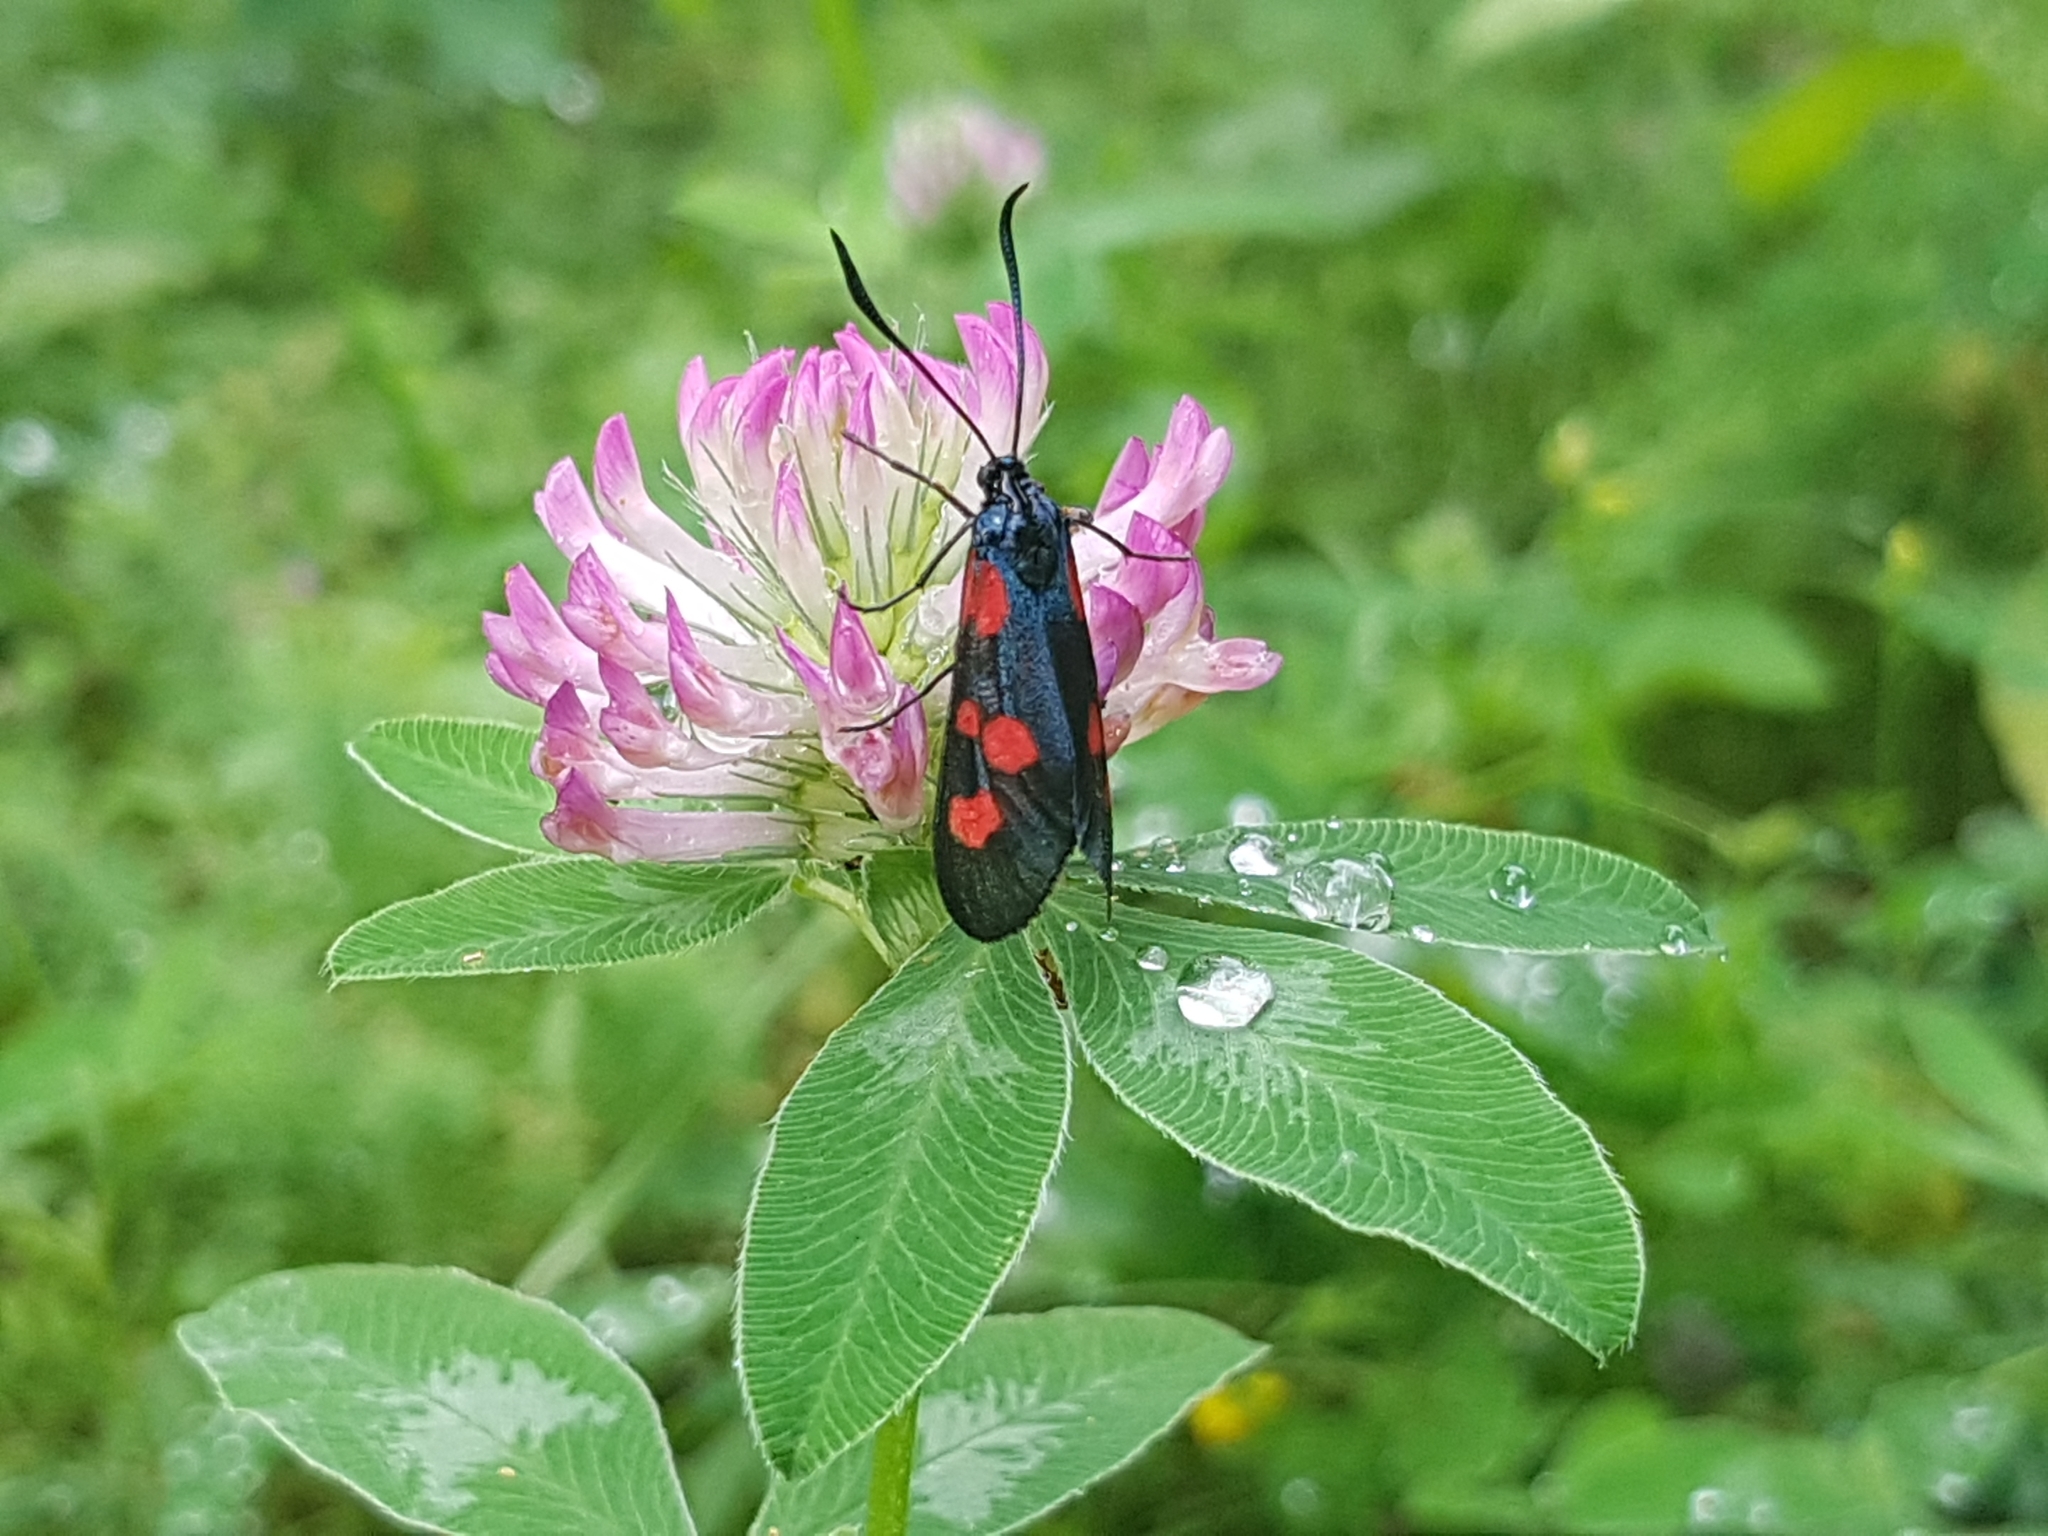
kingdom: Animalia
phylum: Arthropoda
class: Insecta
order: Lepidoptera
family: Zygaenidae
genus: Zygaena
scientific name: Zygaena trifolii
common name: Five-spot burnet
